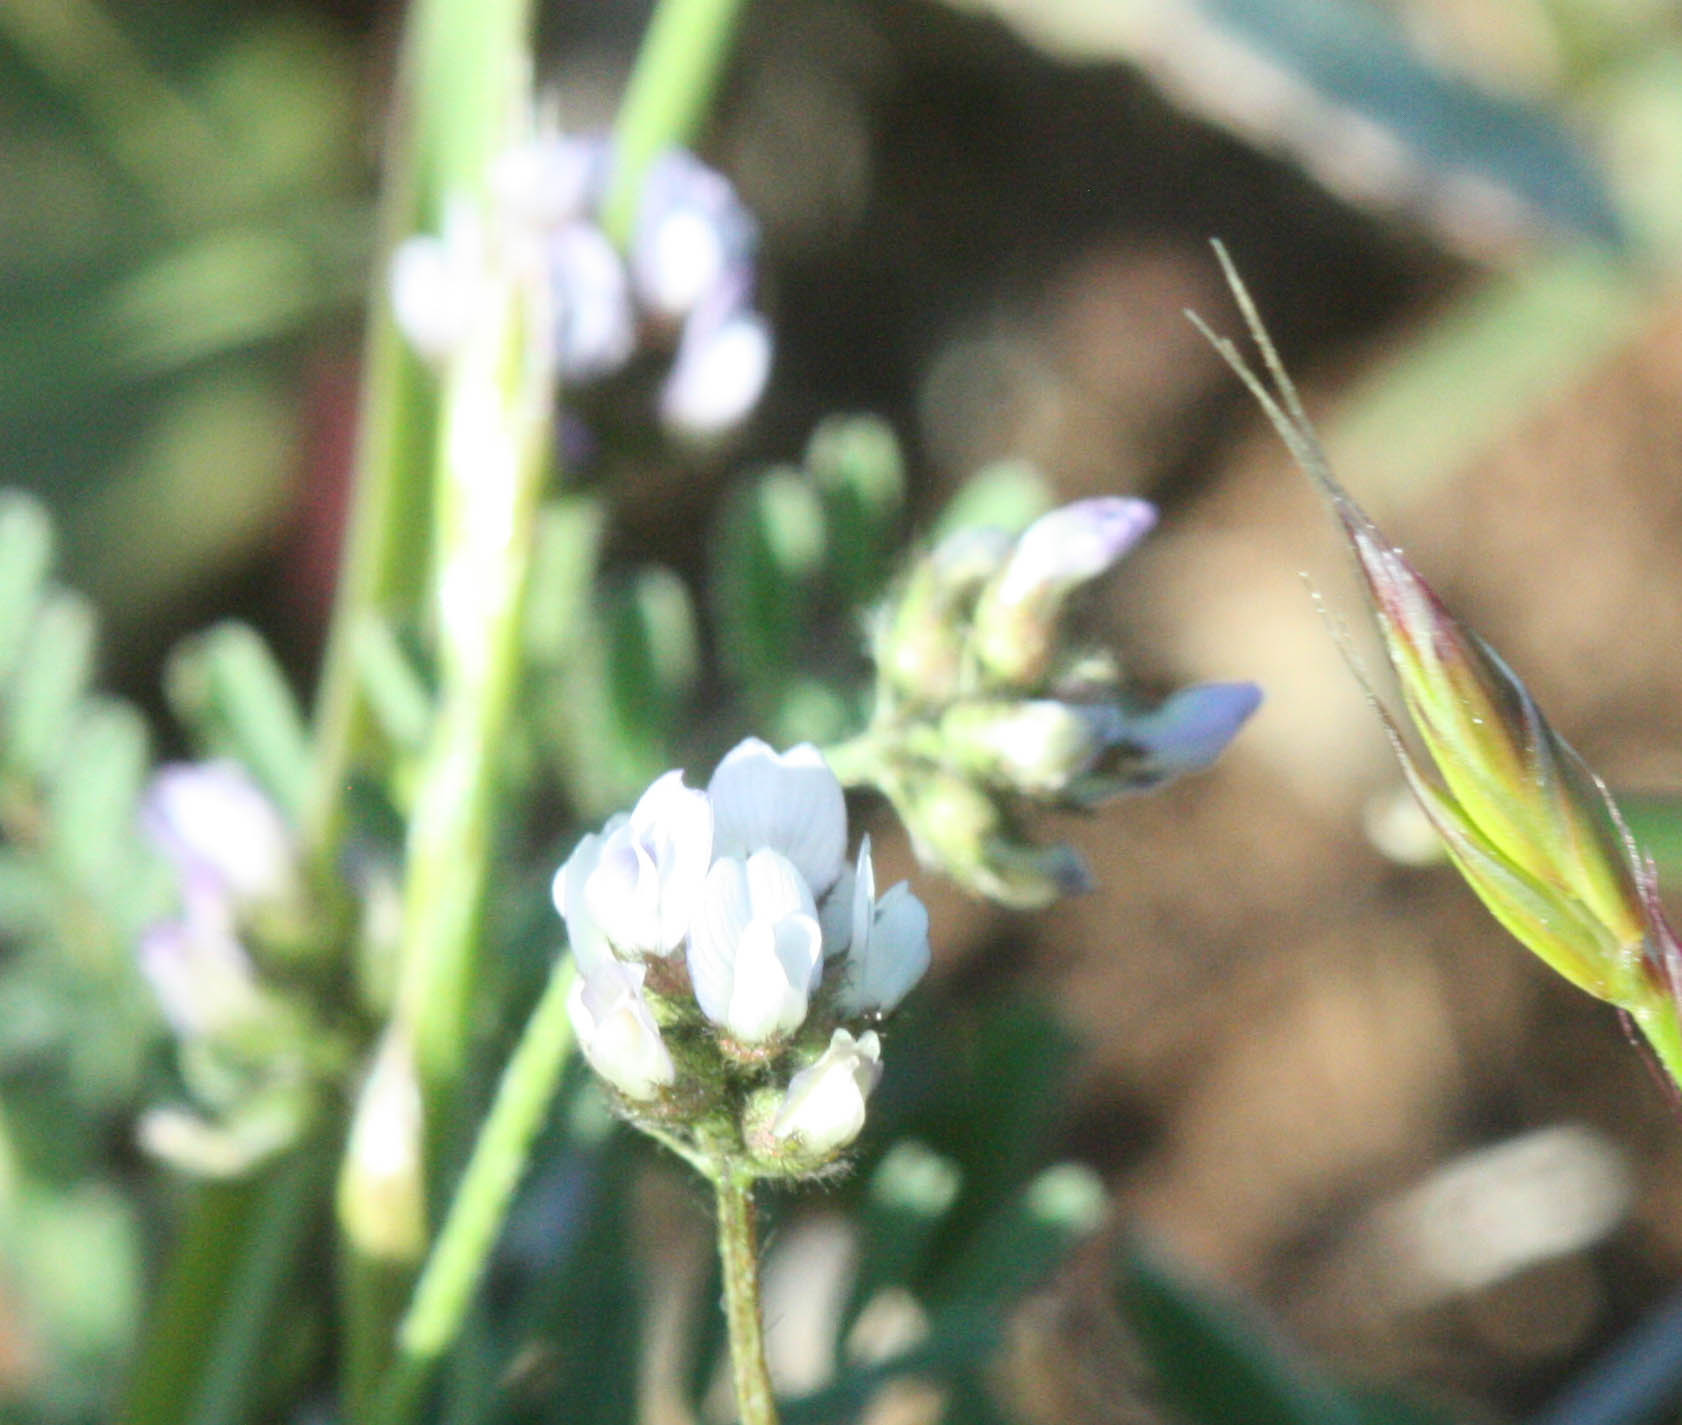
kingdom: Plantae
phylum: Tracheophyta
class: Magnoliopsida
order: Fabales
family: Fabaceae
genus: Astragalus
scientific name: Astragalus gambelianus
